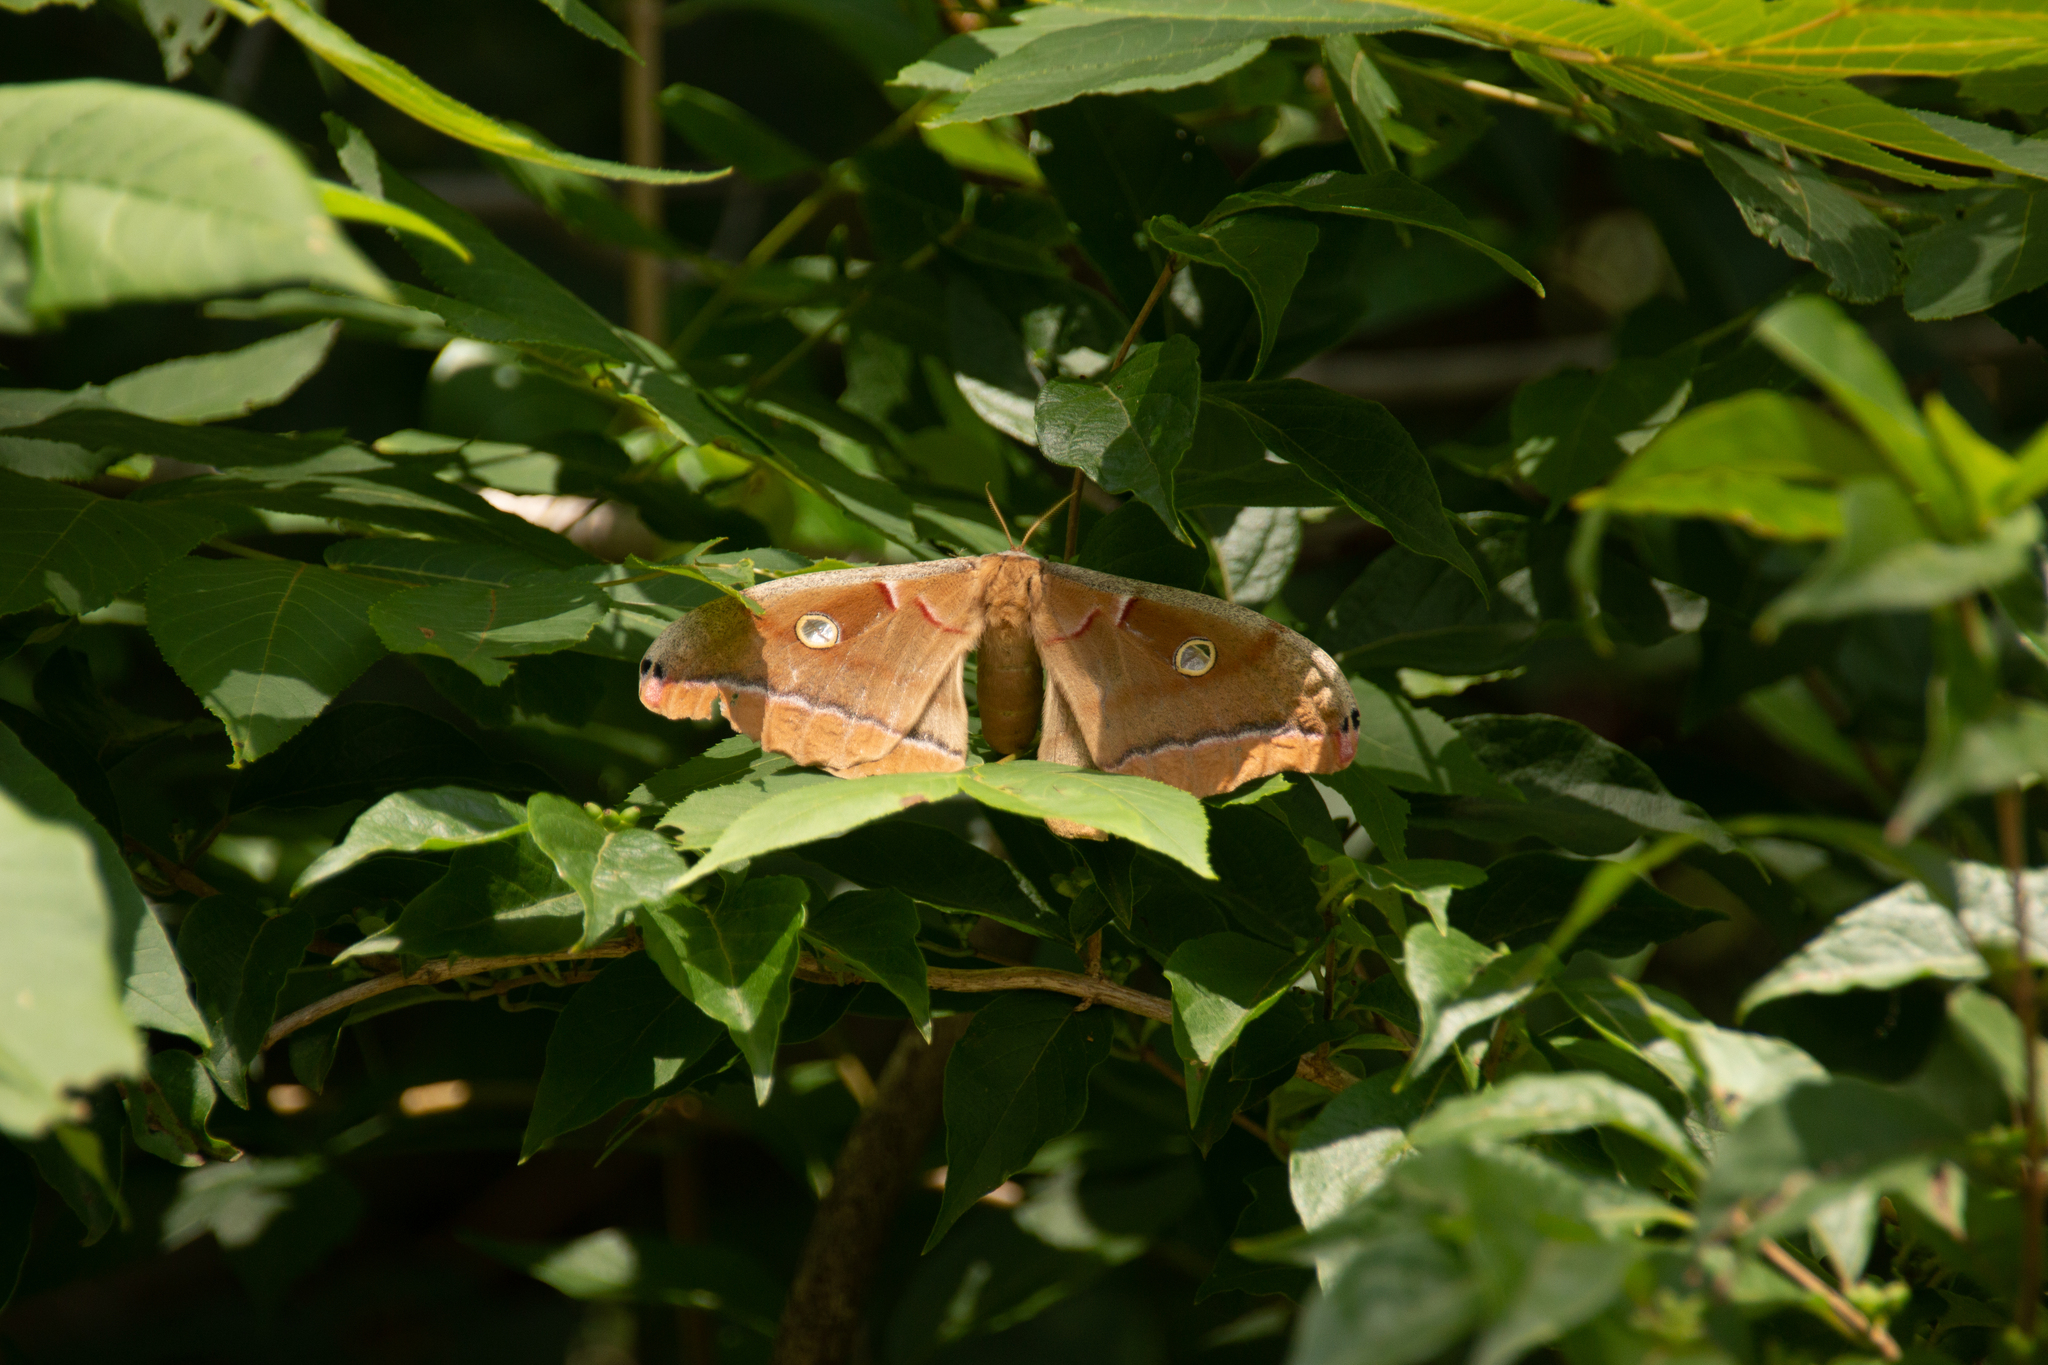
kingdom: Animalia
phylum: Arthropoda
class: Insecta
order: Lepidoptera
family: Saturniidae
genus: Antheraea
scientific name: Antheraea polyphemus
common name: Polyphemus moth
